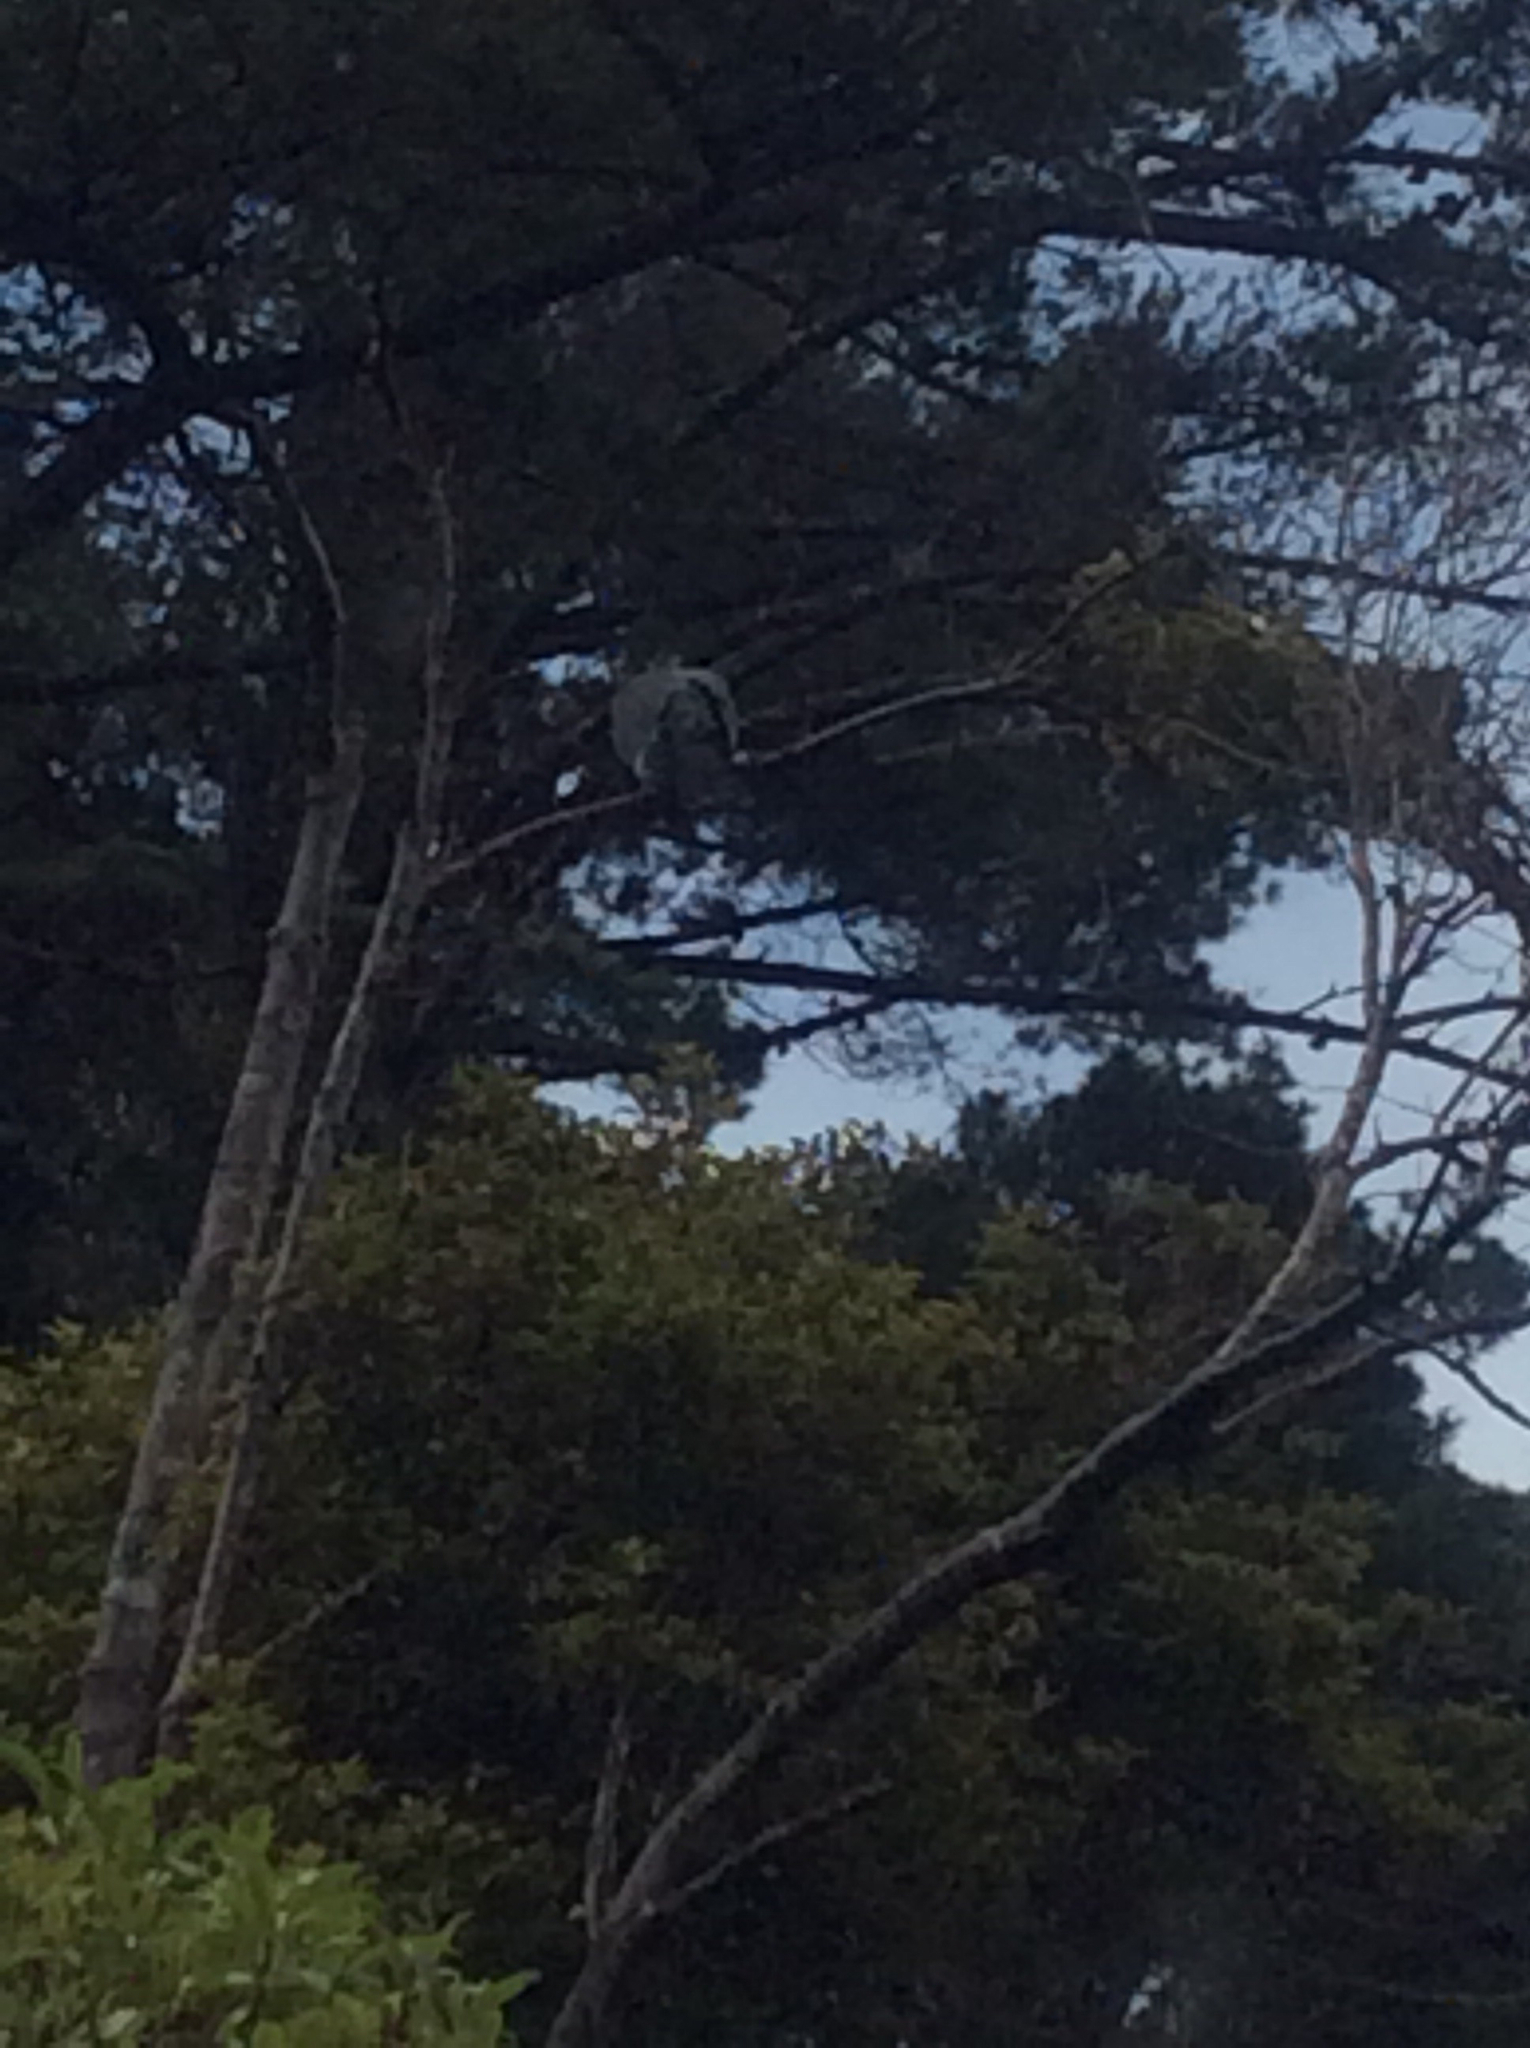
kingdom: Animalia
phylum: Chordata
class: Aves
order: Columbiformes
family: Columbidae
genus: Hemiphaga
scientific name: Hemiphaga novaeseelandiae
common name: New zealand pigeon
